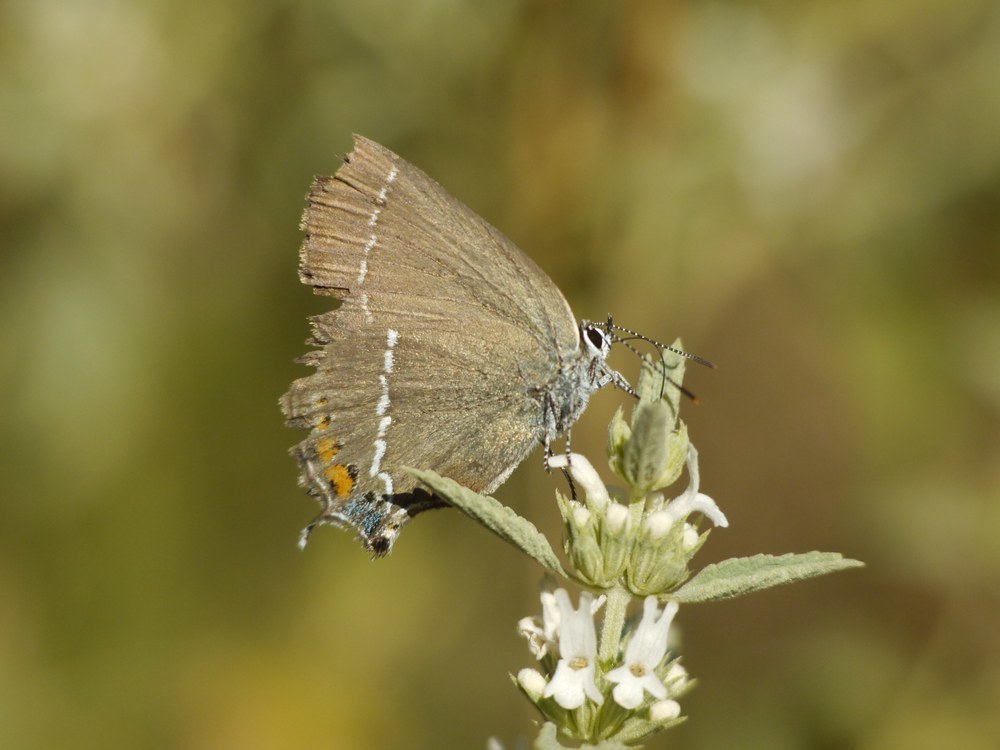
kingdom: Animalia
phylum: Arthropoda
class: Insecta
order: Lepidoptera
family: Lycaenidae
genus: Tuttiola
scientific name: Tuttiola spini
